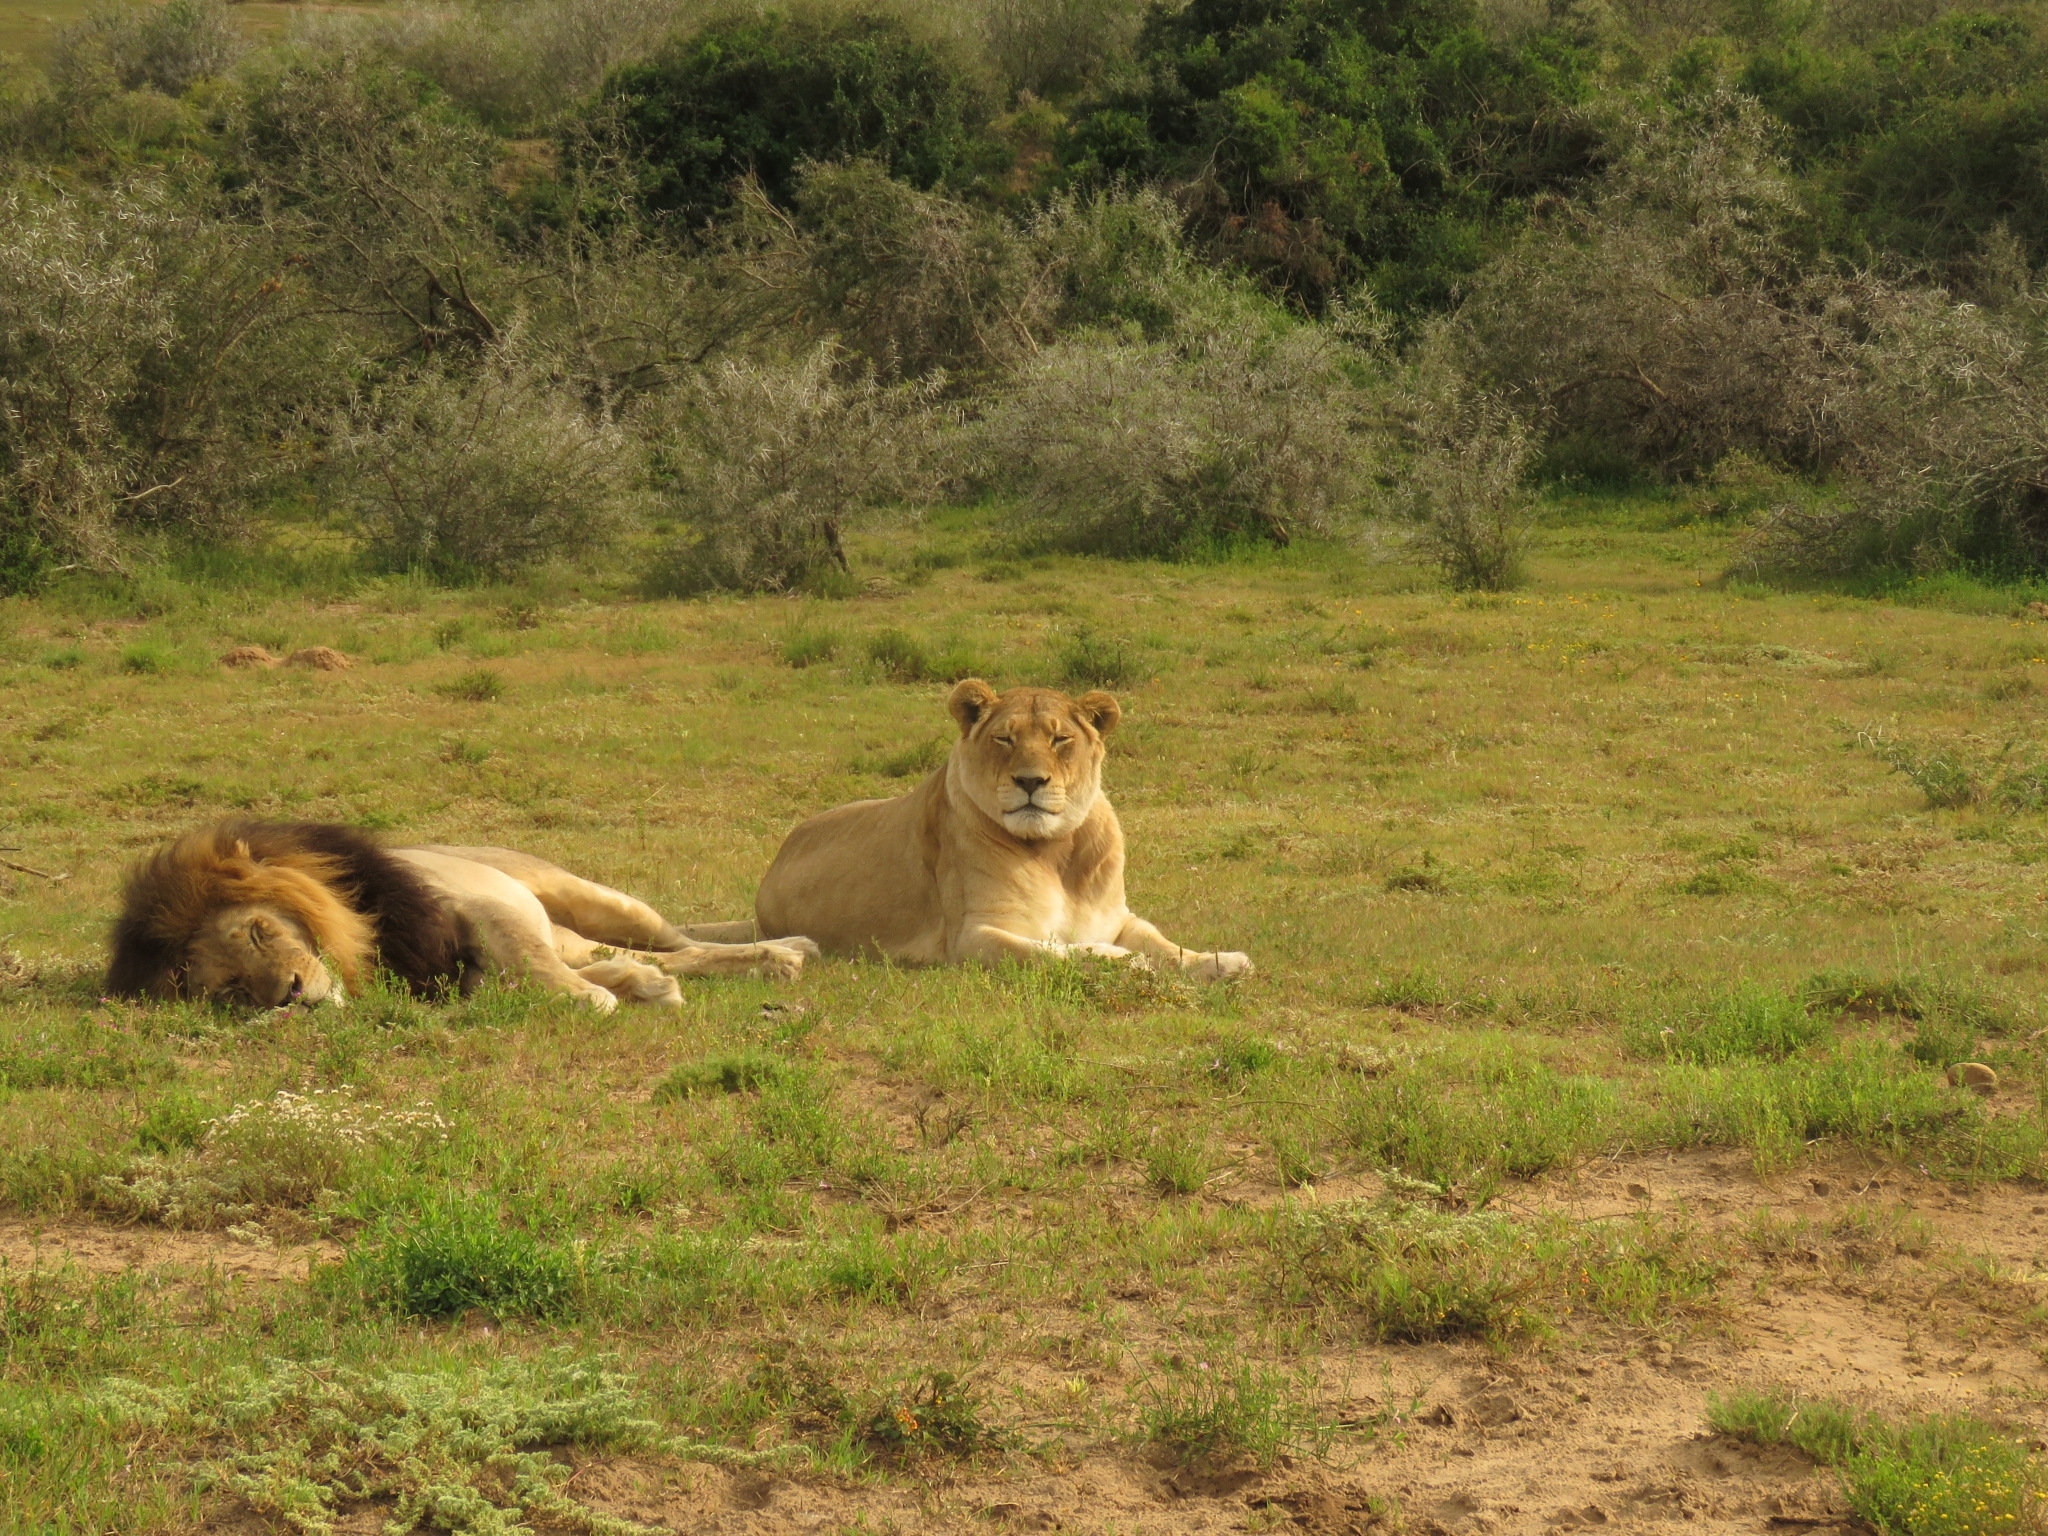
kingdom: Animalia
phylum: Chordata
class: Mammalia
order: Carnivora
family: Felidae
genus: Panthera
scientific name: Panthera leo
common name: Lion
